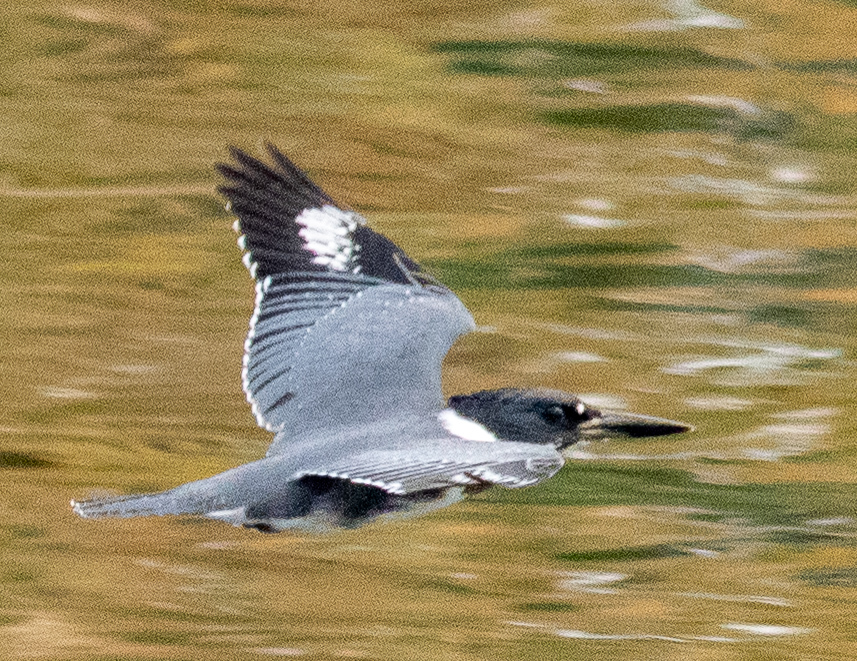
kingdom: Animalia
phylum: Chordata
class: Aves
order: Coraciiformes
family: Alcedinidae
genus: Megaceryle
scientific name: Megaceryle alcyon
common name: Belted kingfisher
